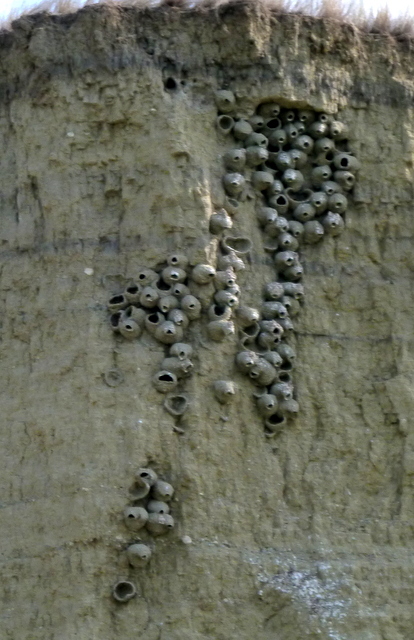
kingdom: Animalia
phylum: Chordata
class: Aves
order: Passeriformes
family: Hirundinidae
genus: Petrochelidon
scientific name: Petrochelidon pyrrhonota
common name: American cliff swallow
